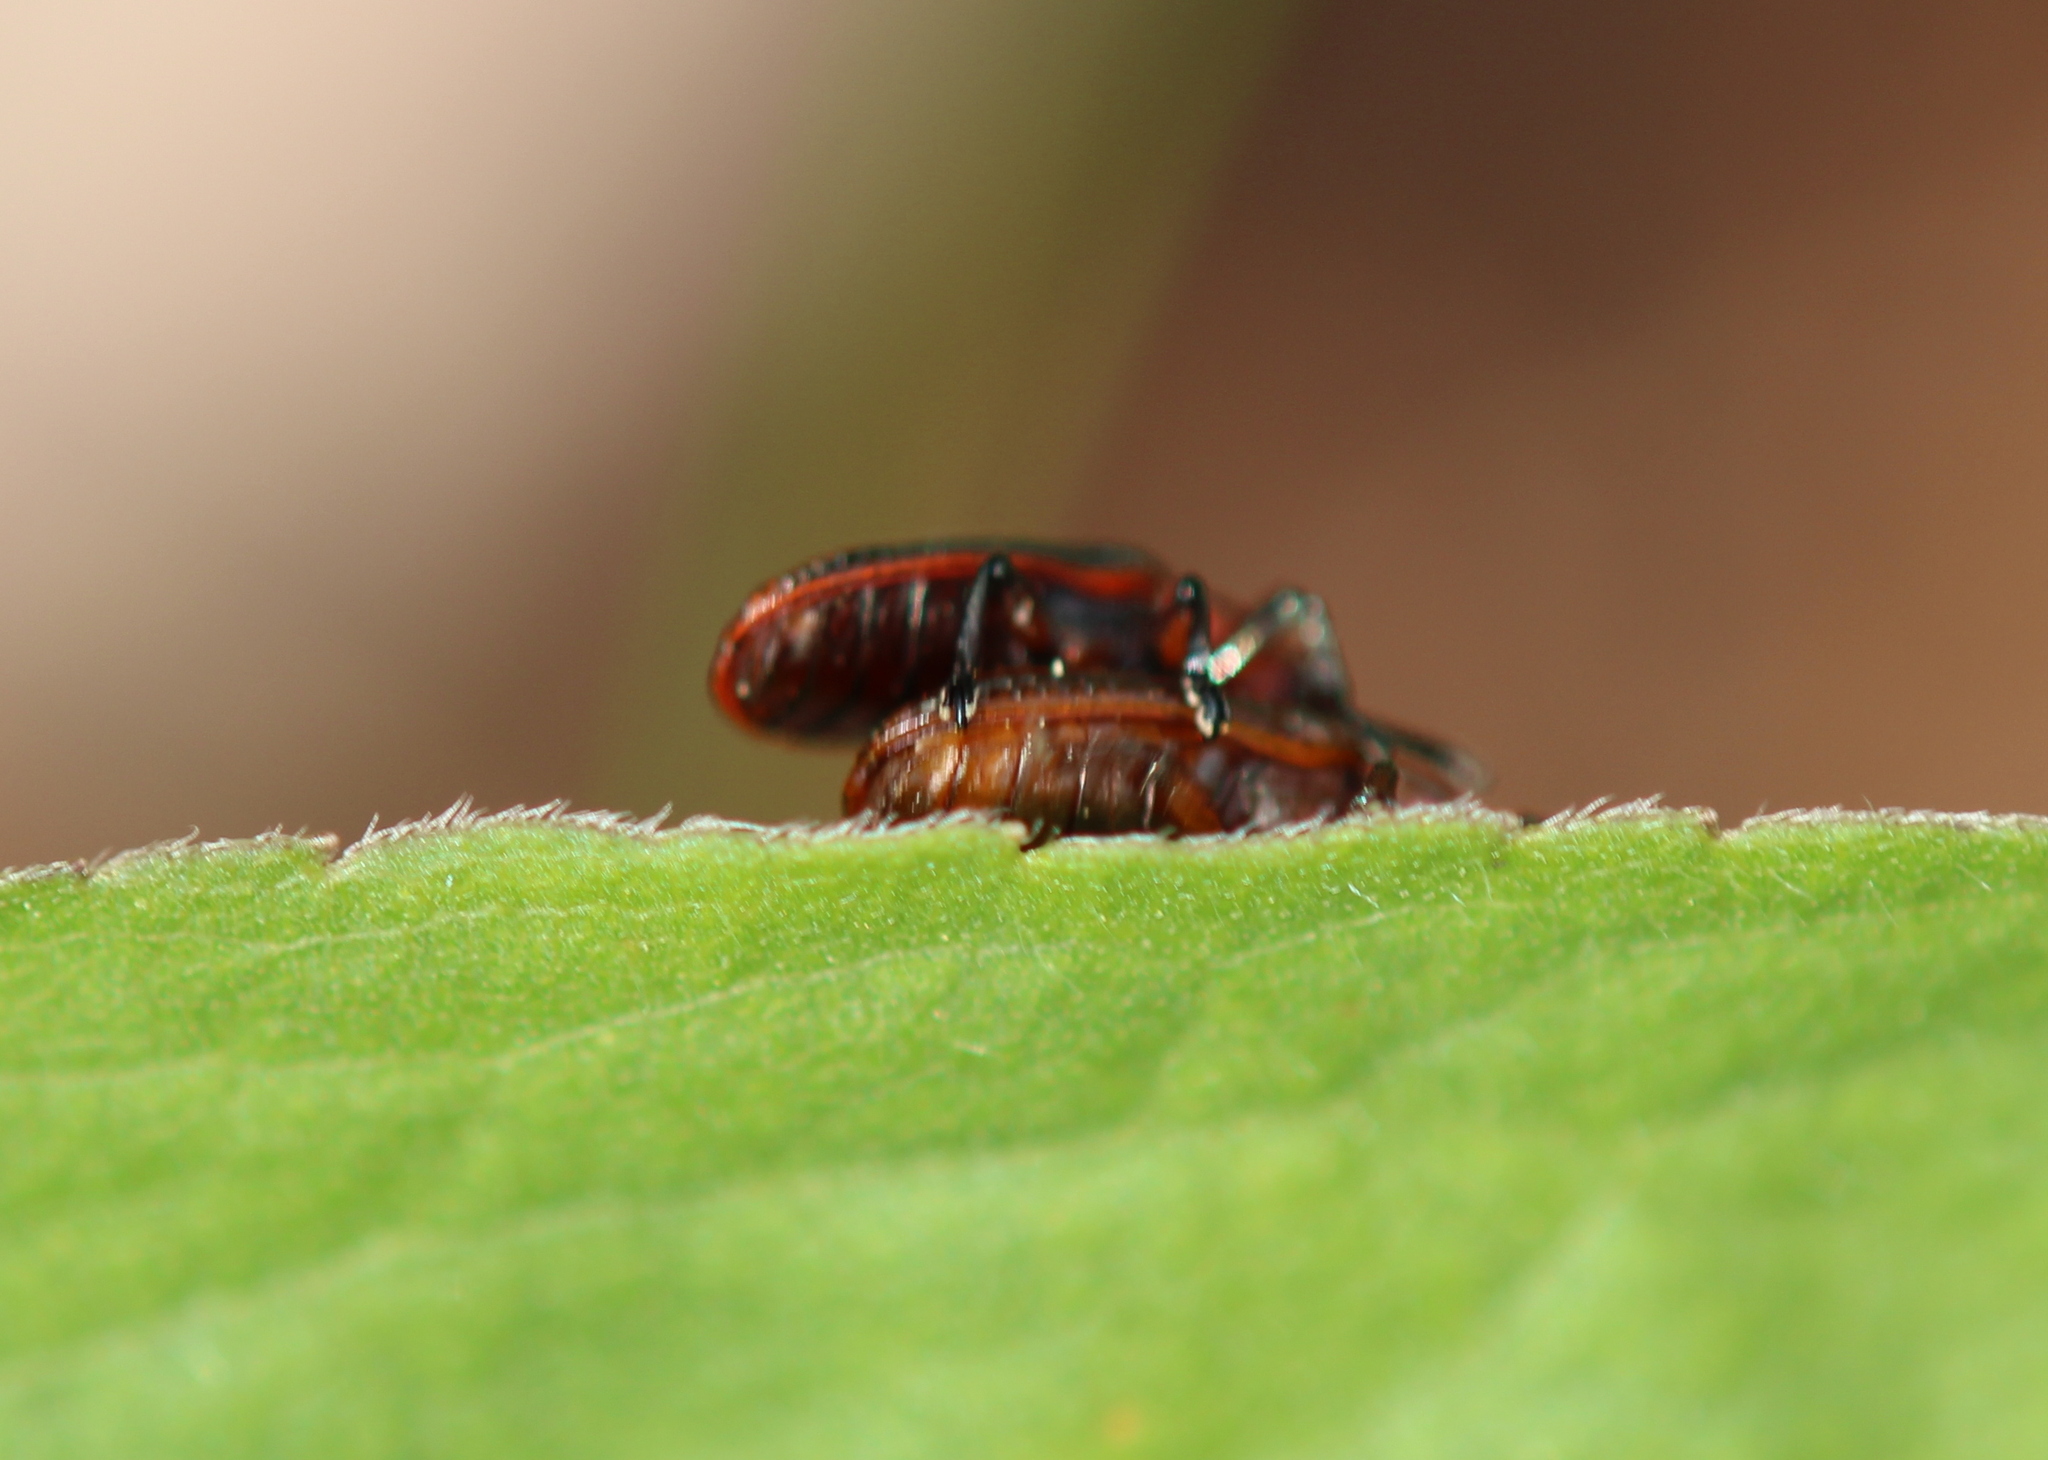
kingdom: Animalia
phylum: Arthropoda
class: Insecta
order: Coleoptera
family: Chrysomelidae
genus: Microrhopala
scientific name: Microrhopala vittata
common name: Goldenrod leaf miner beetle
